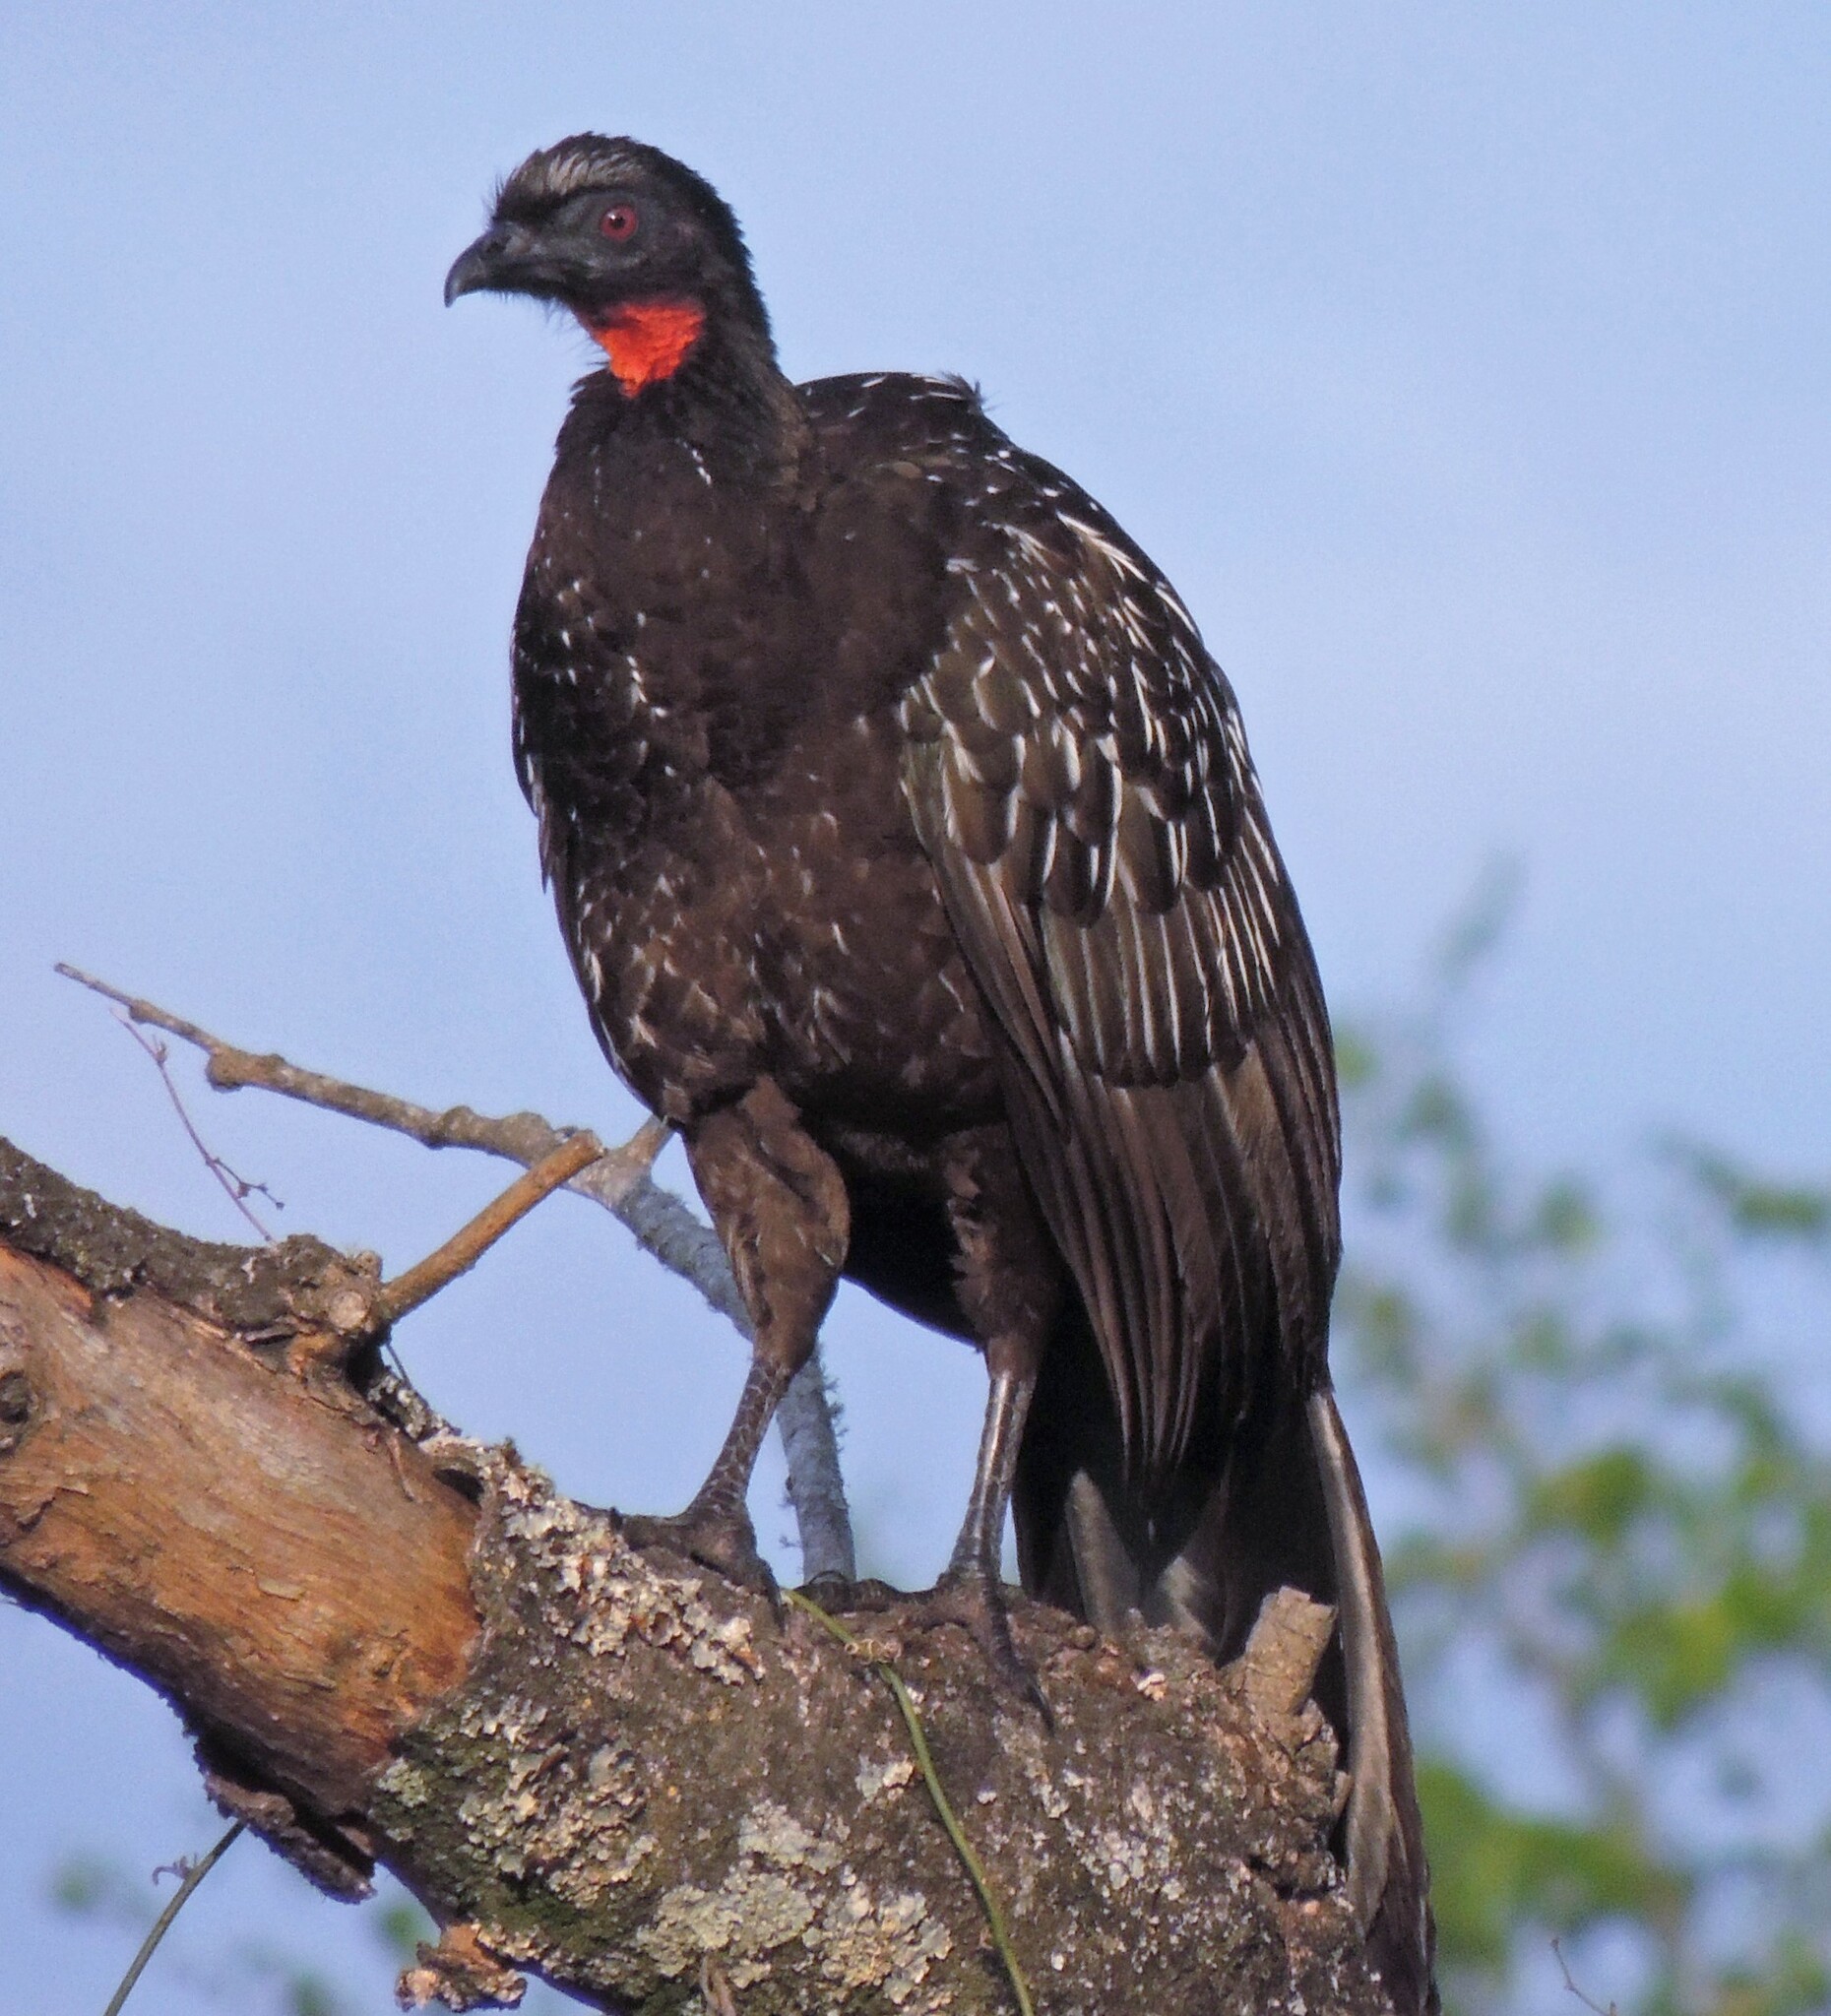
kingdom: Animalia
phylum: Chordata
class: Aves
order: Galliformes
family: Cracidae
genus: Penelope
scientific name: Penelope bridgesi
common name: Yungas guan
